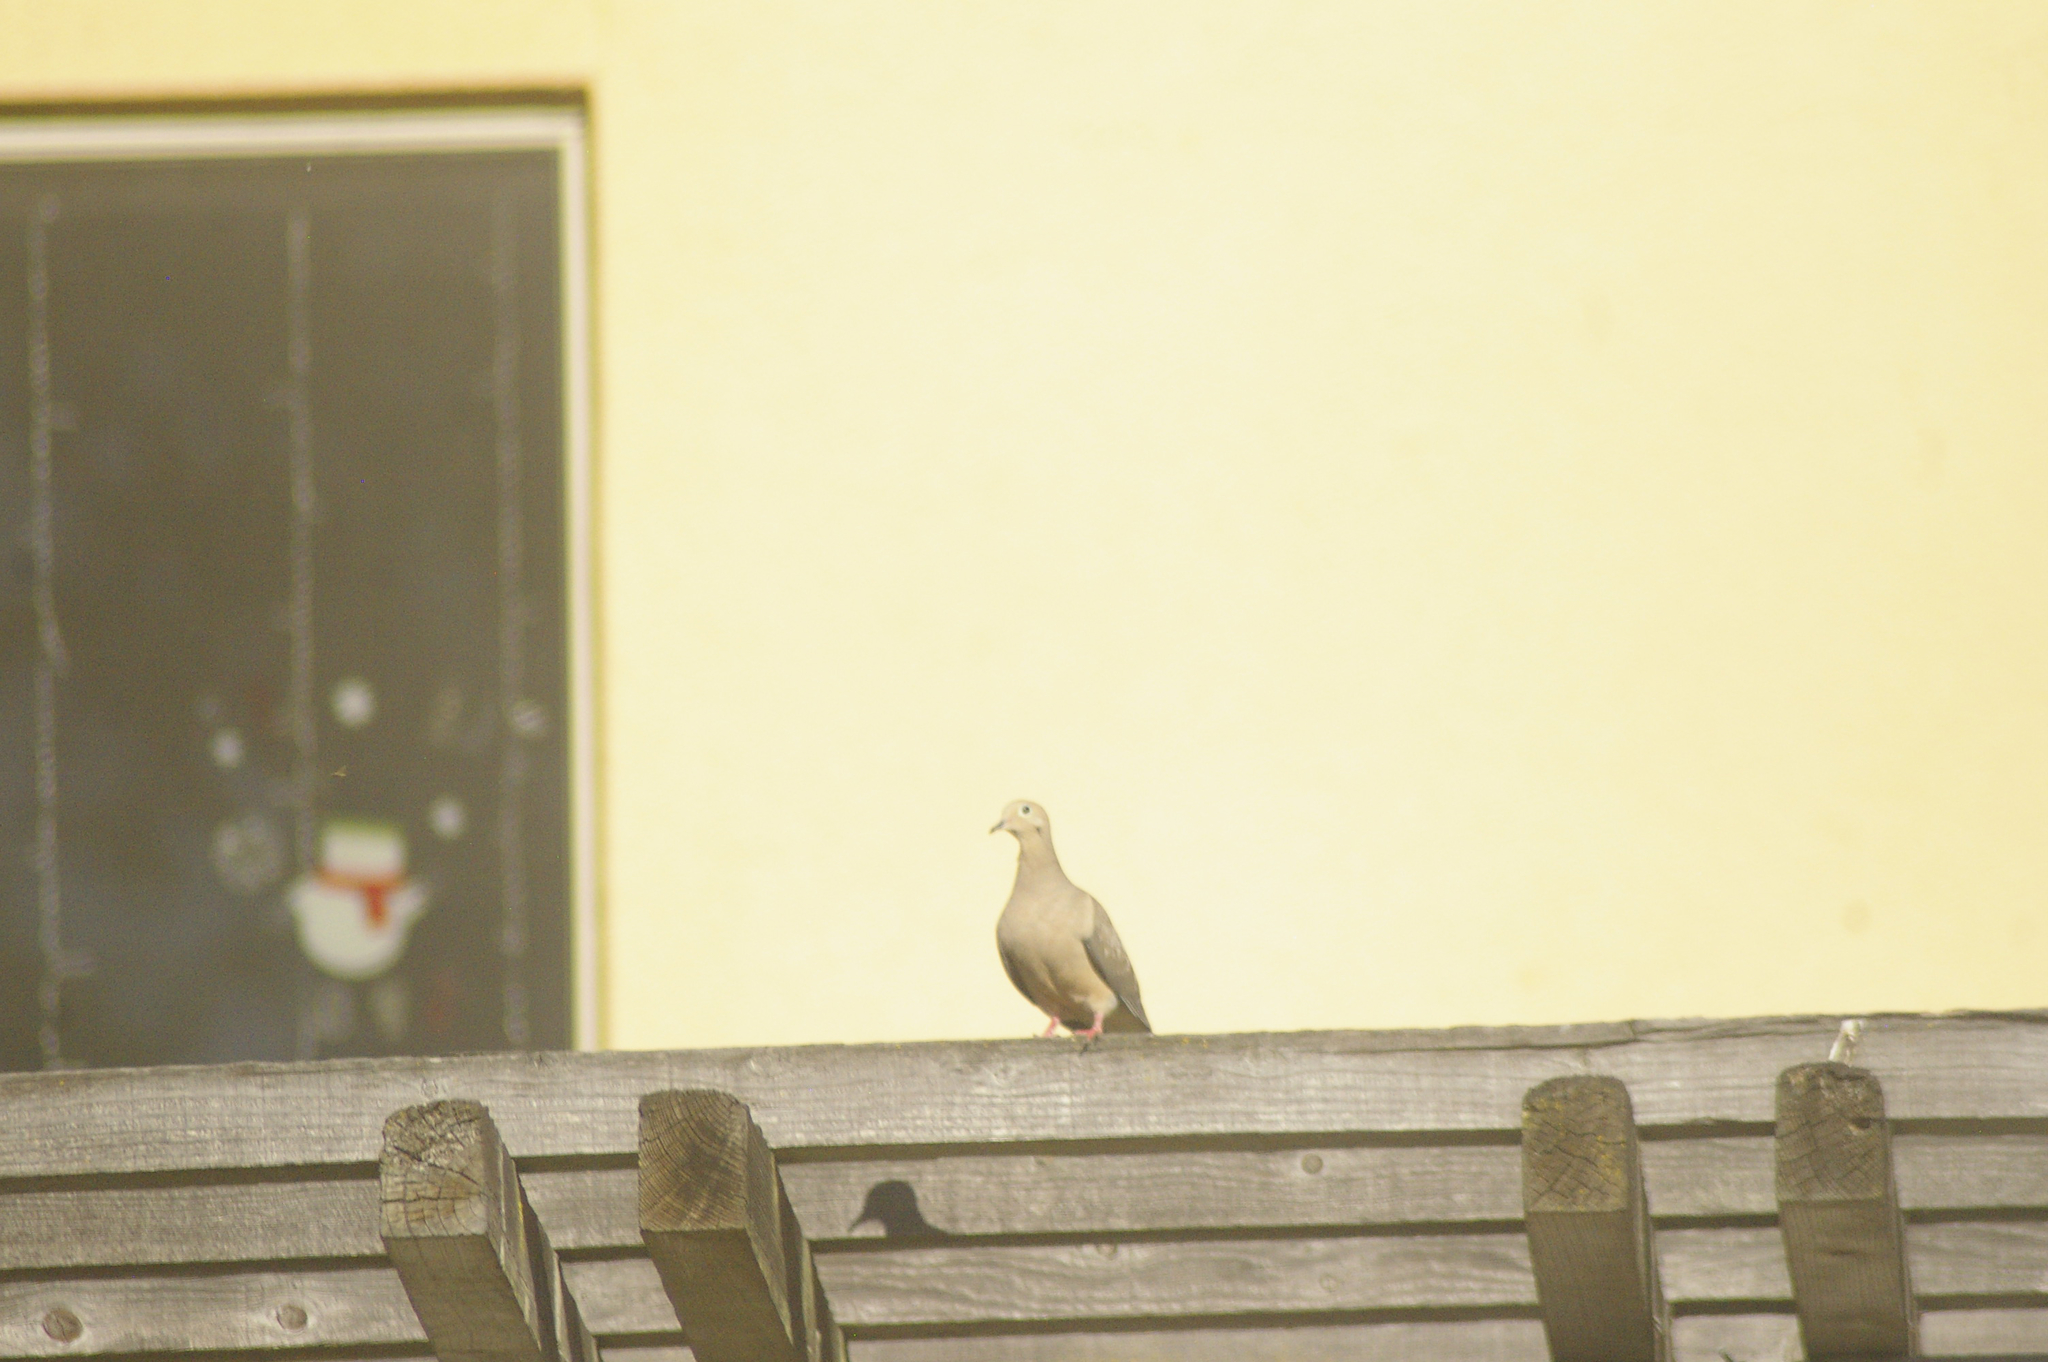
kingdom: Animalia
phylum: Chordata
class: Aves
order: Columbiformes
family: Columbidae
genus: Zenaida
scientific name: Zenaida macroura
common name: Mourning dove
